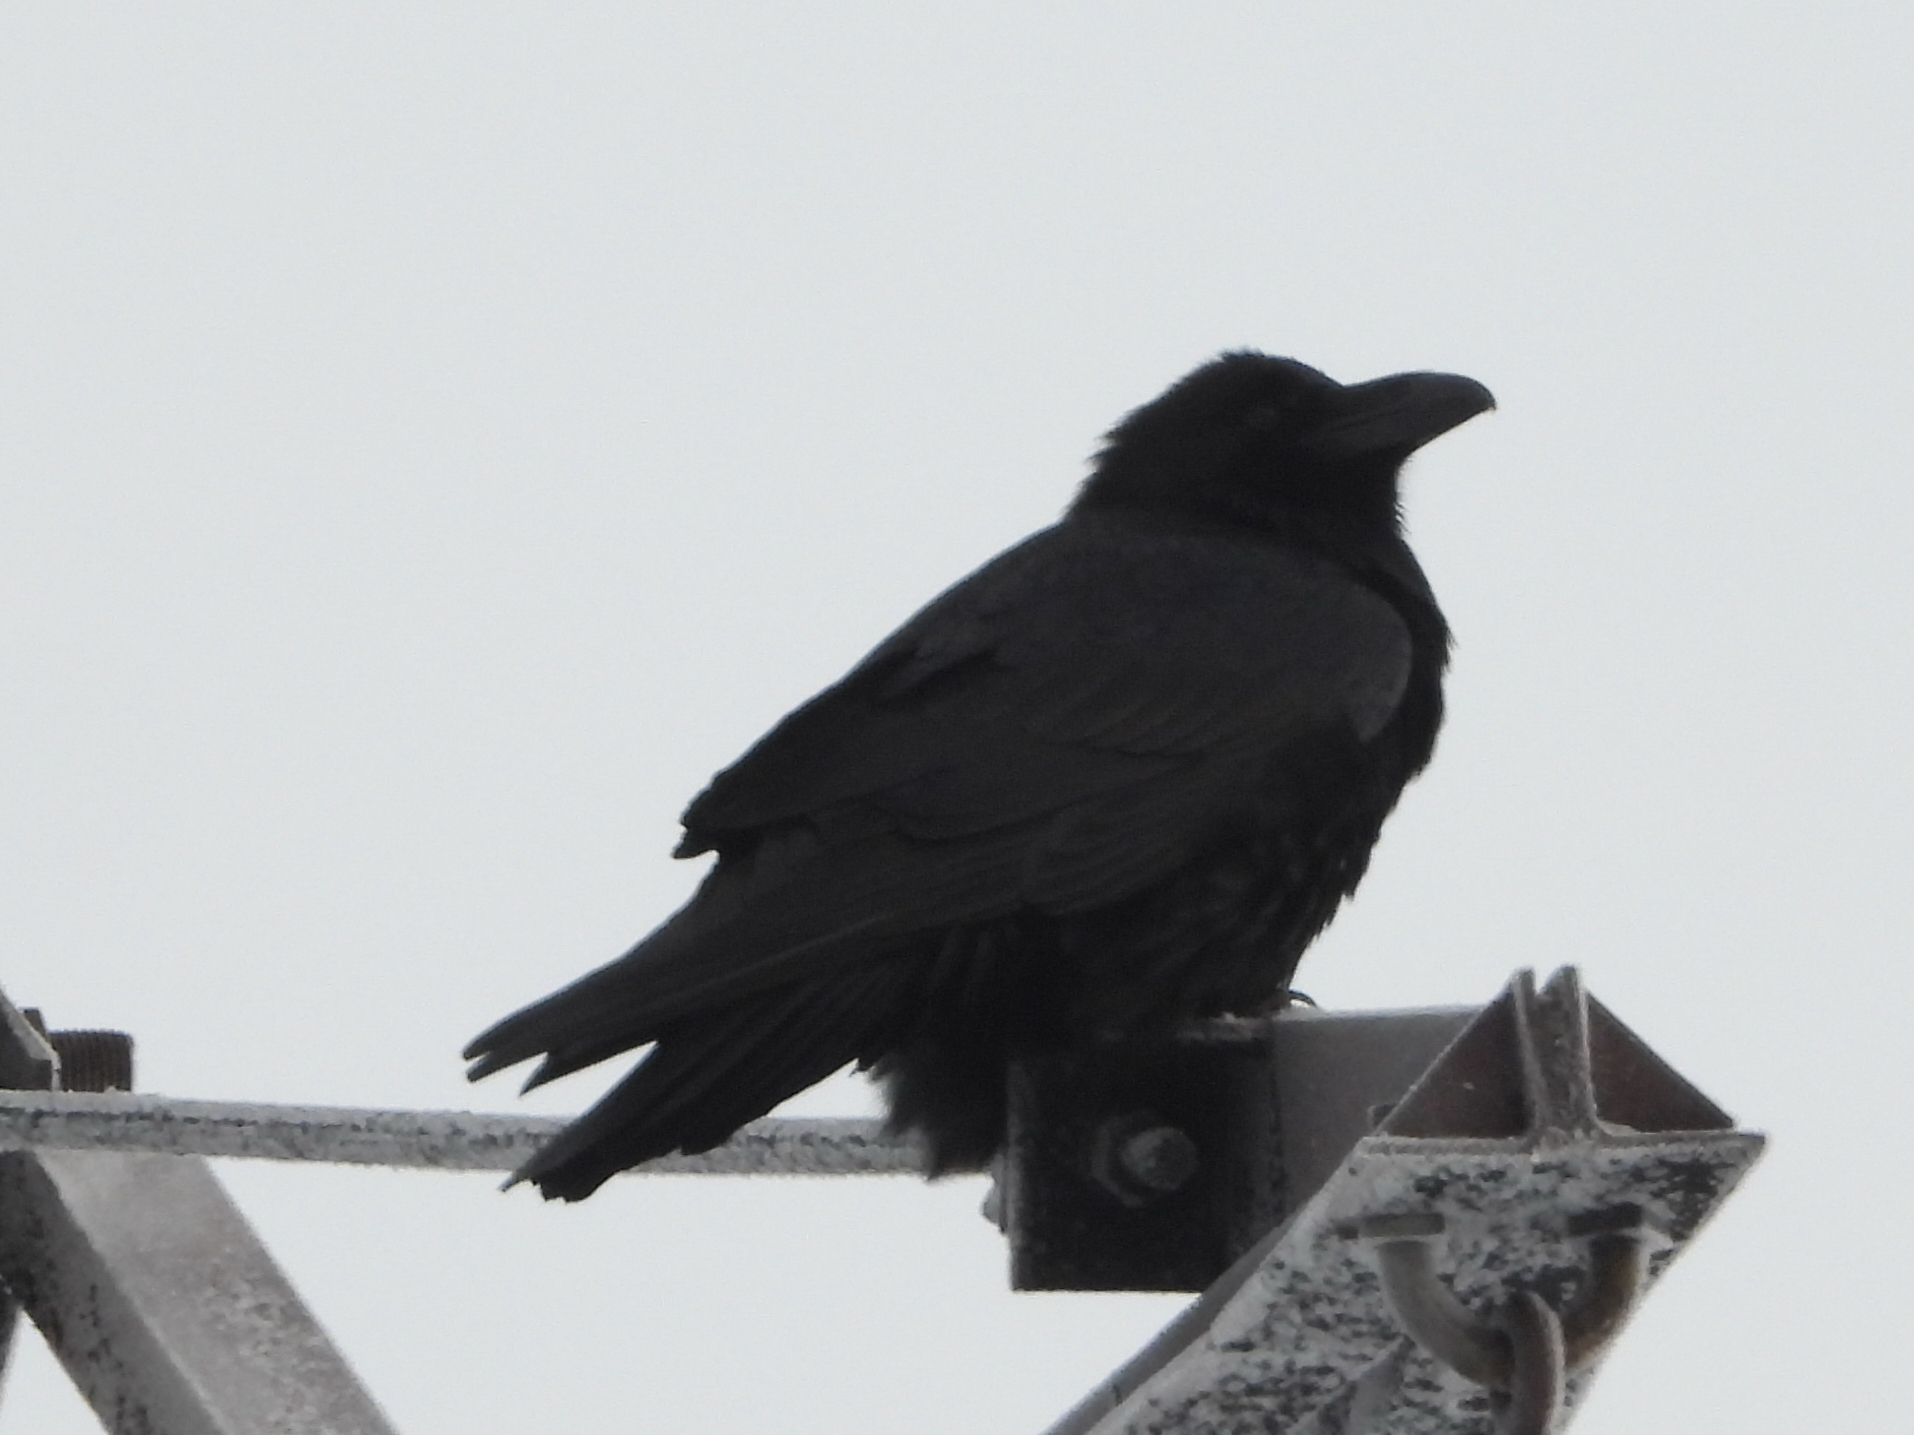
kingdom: Animalia
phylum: Chordata
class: Aves
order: Passeriformes
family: Corvidae
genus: Corvus
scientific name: Corvus corax
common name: Common raven
